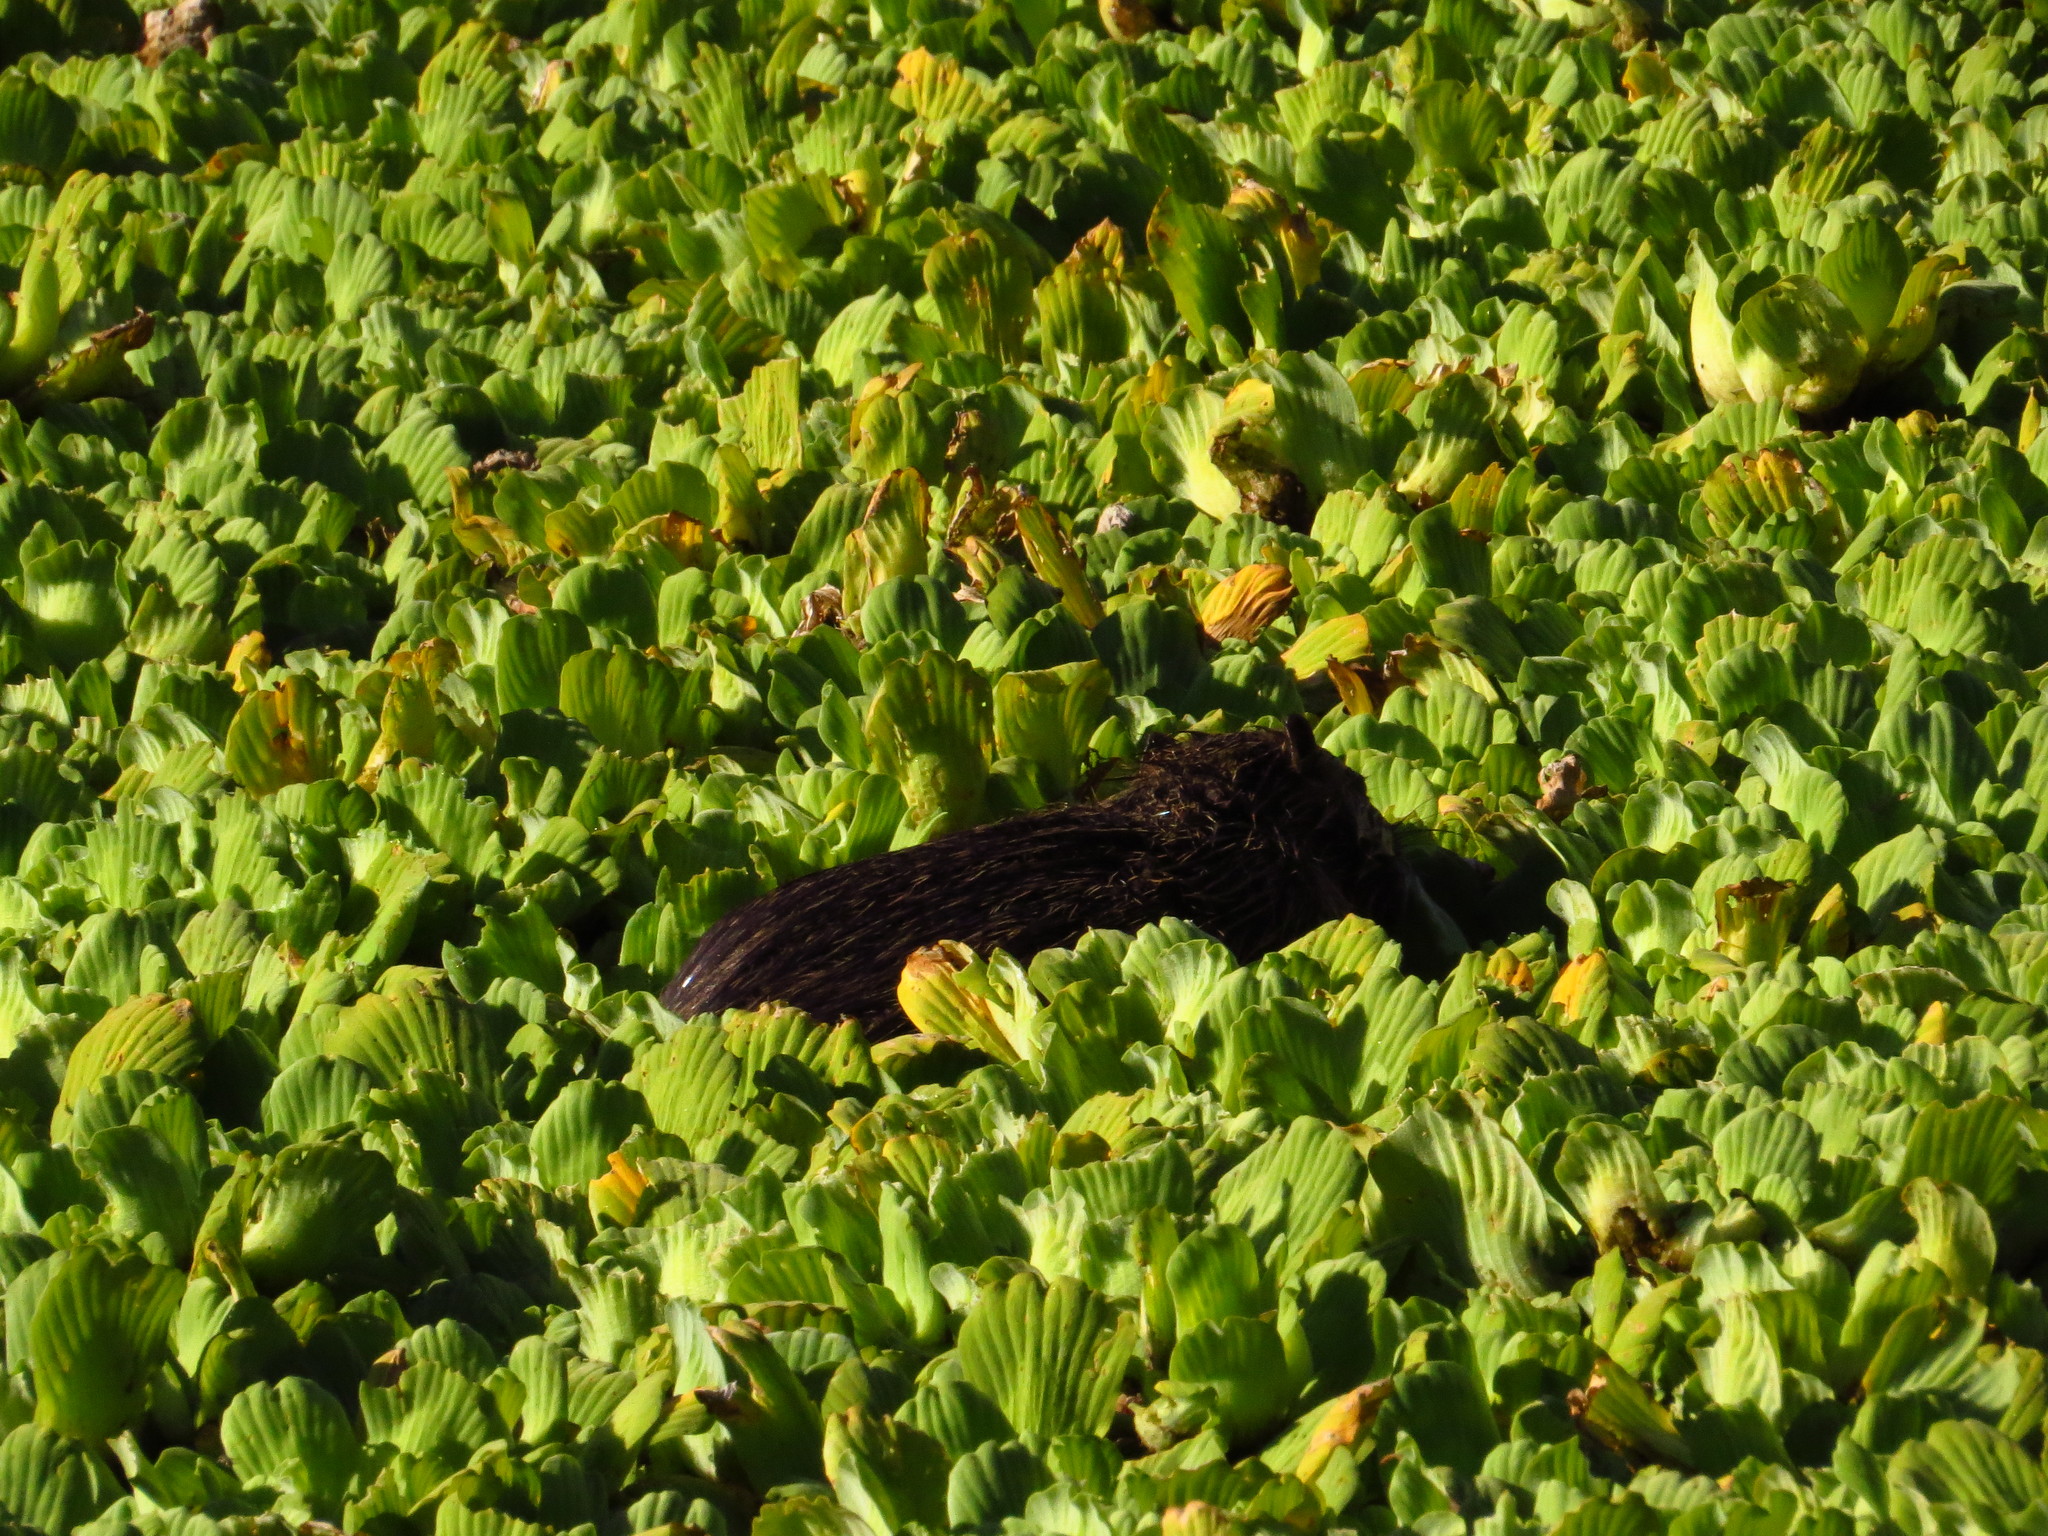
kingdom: Plantae
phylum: Tracheophyta
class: Liliopsida
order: Alismatales
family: Araceae
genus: Pistia
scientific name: Pistia stratiotes
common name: Water lettuce
